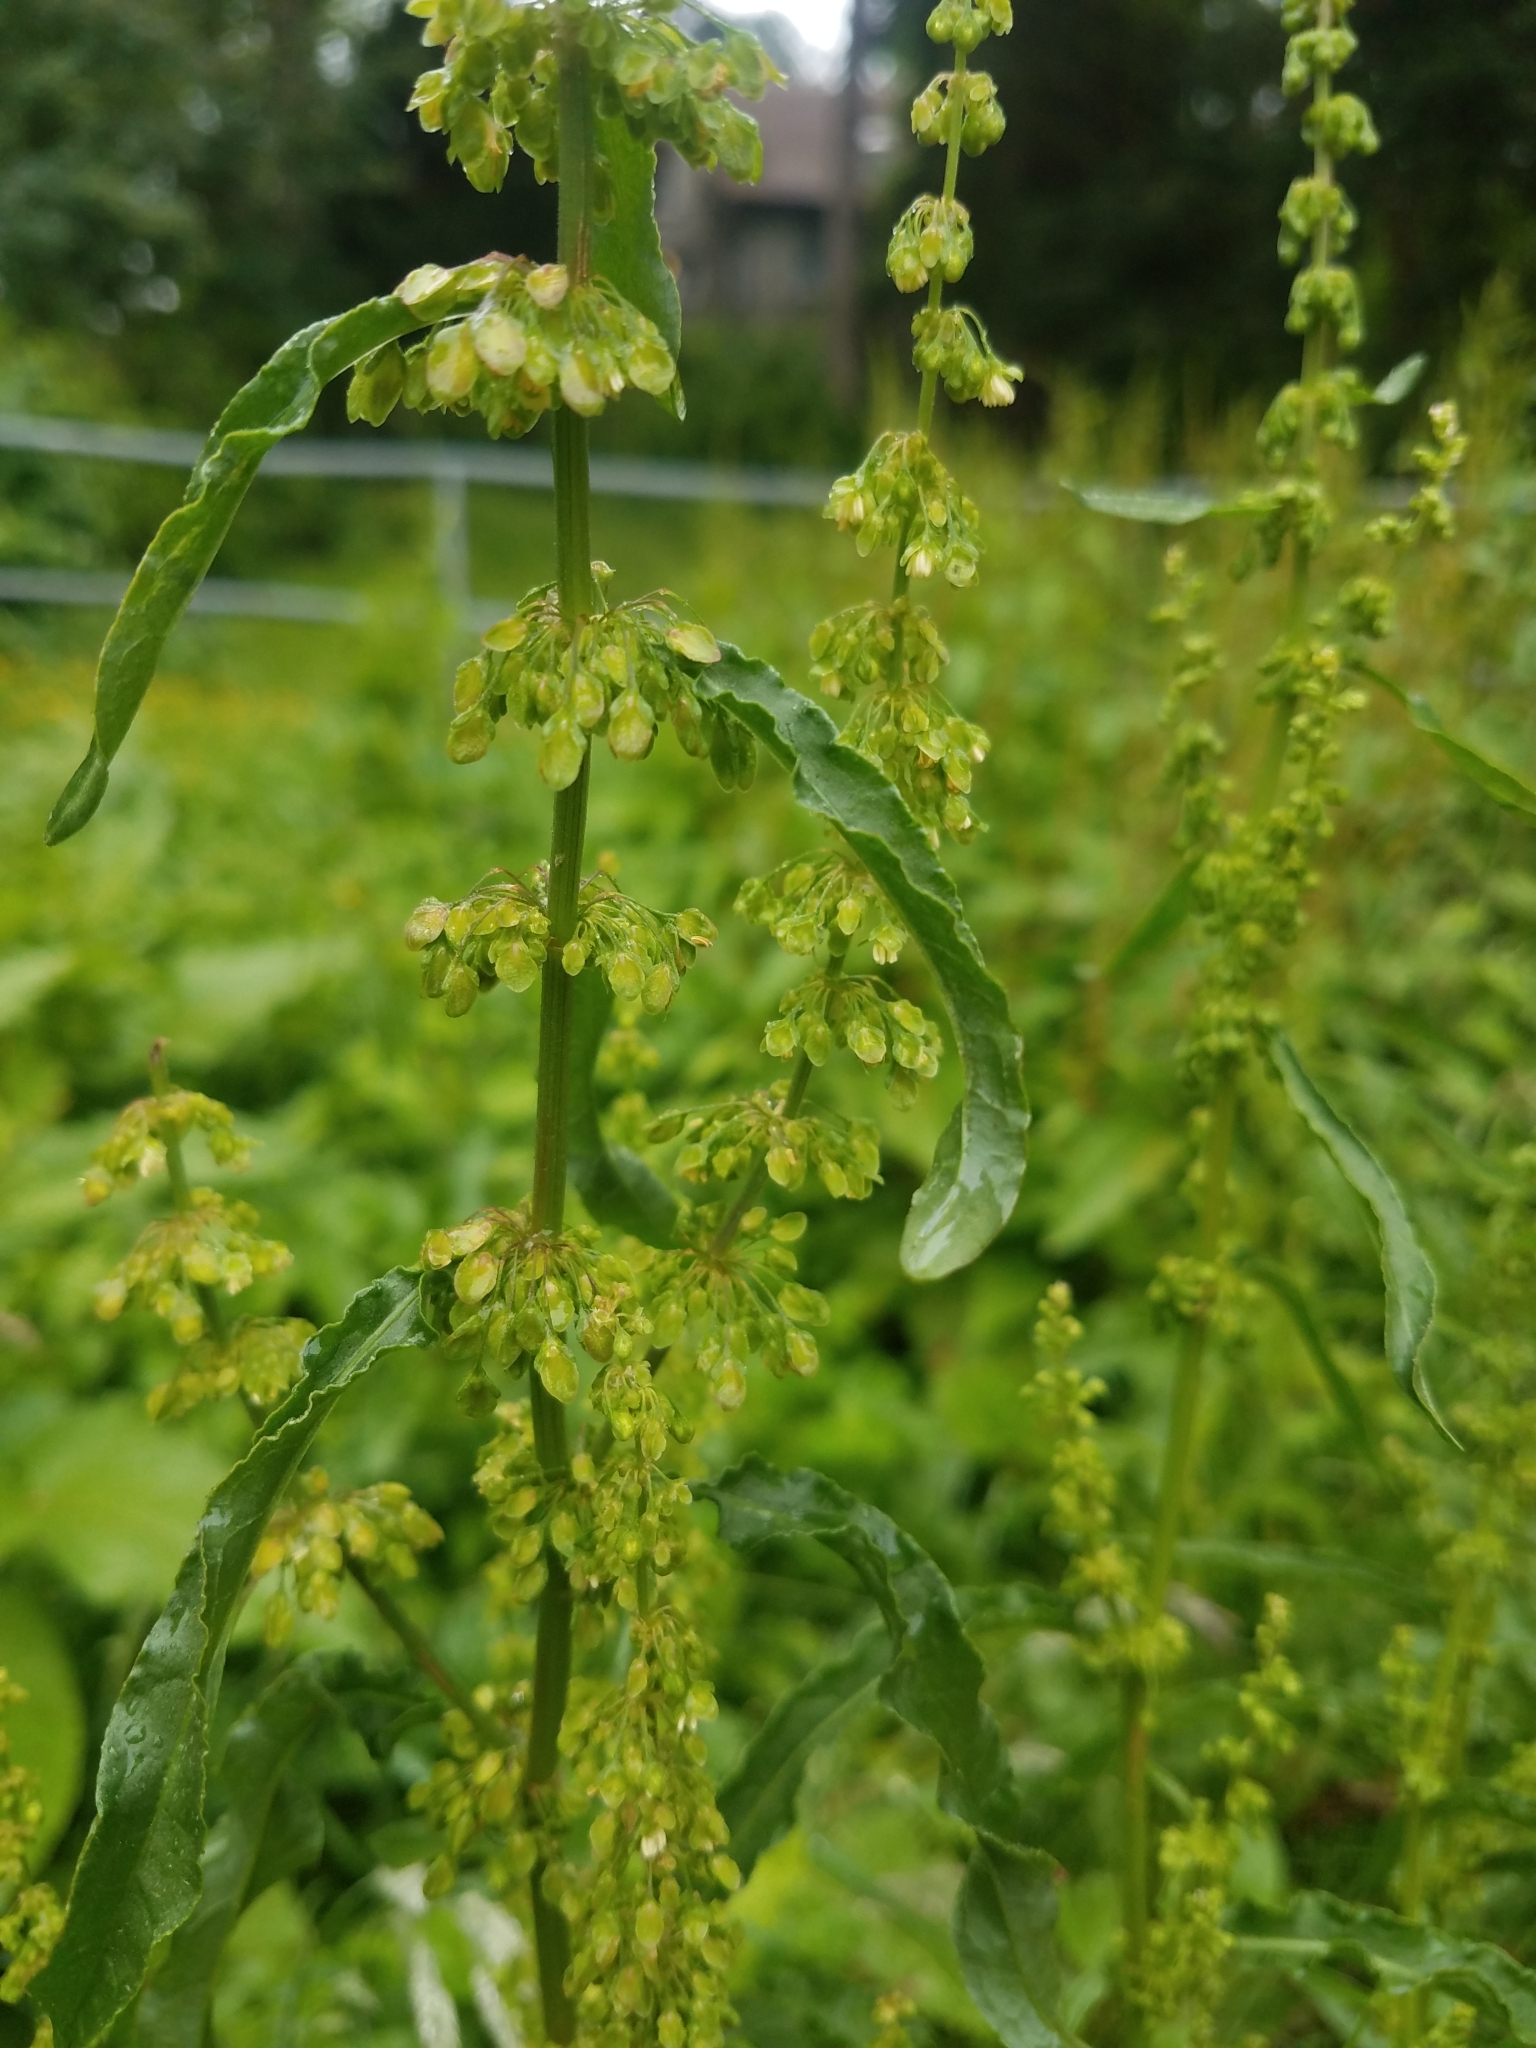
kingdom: Plantae
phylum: Tracheophyta
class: Magnoliopsida
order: Caryophyllales
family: Polygonaceae
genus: Rumex
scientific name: Rumex crispus
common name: Curled dock
